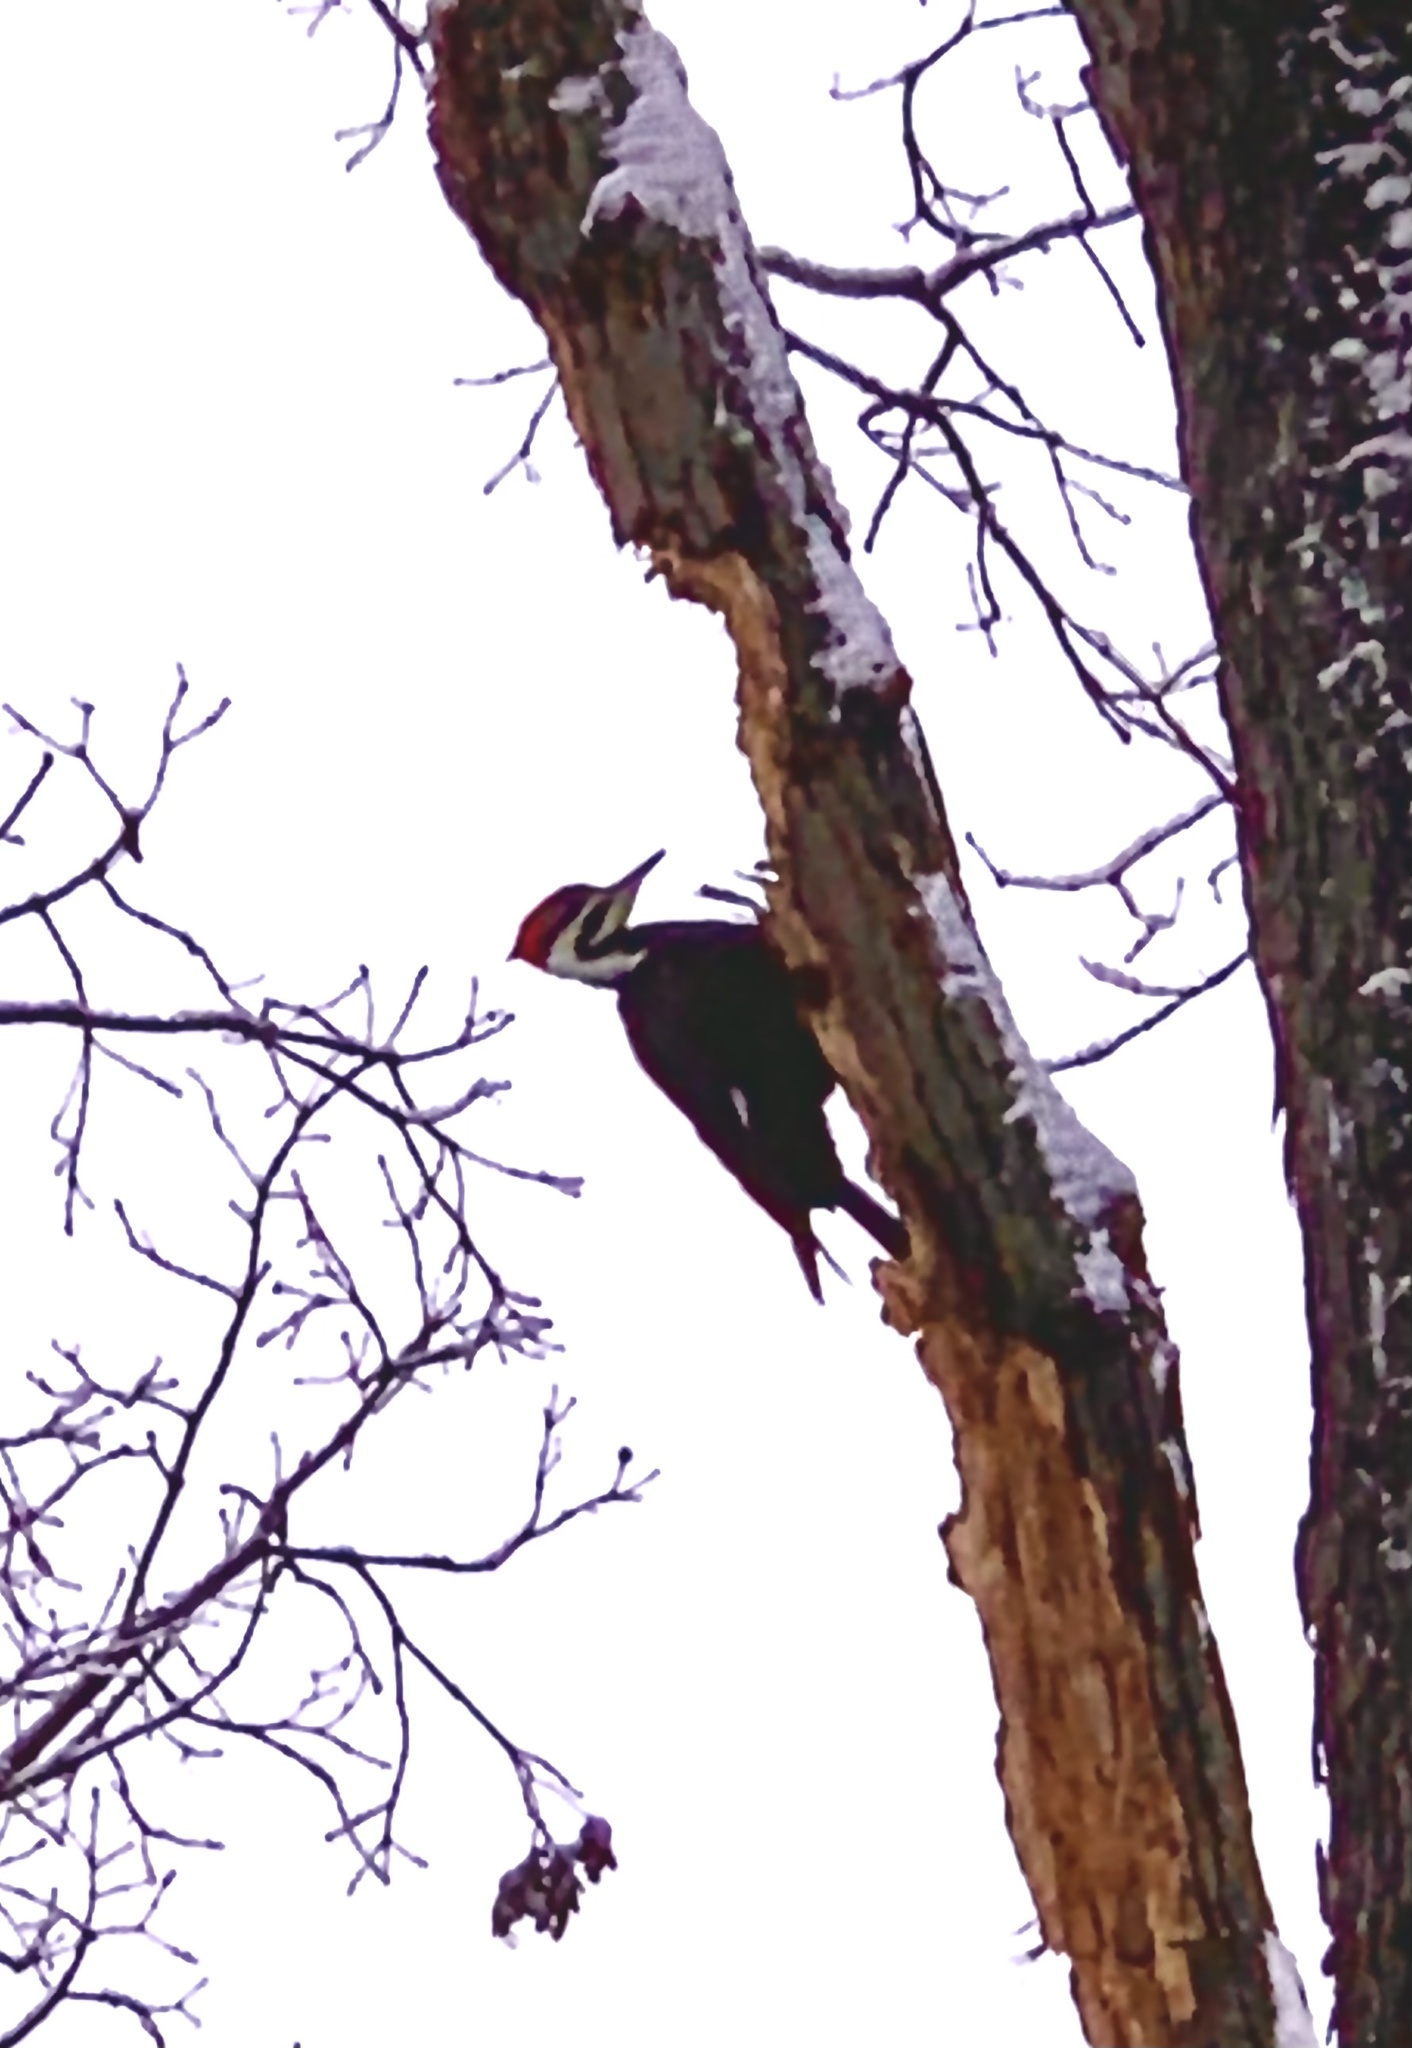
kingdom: Animalia
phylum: Chordata
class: Aves
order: Piciformes
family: Picidae
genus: Dryocopus
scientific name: Dryocopus pileatus
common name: Pileated woodpecker
